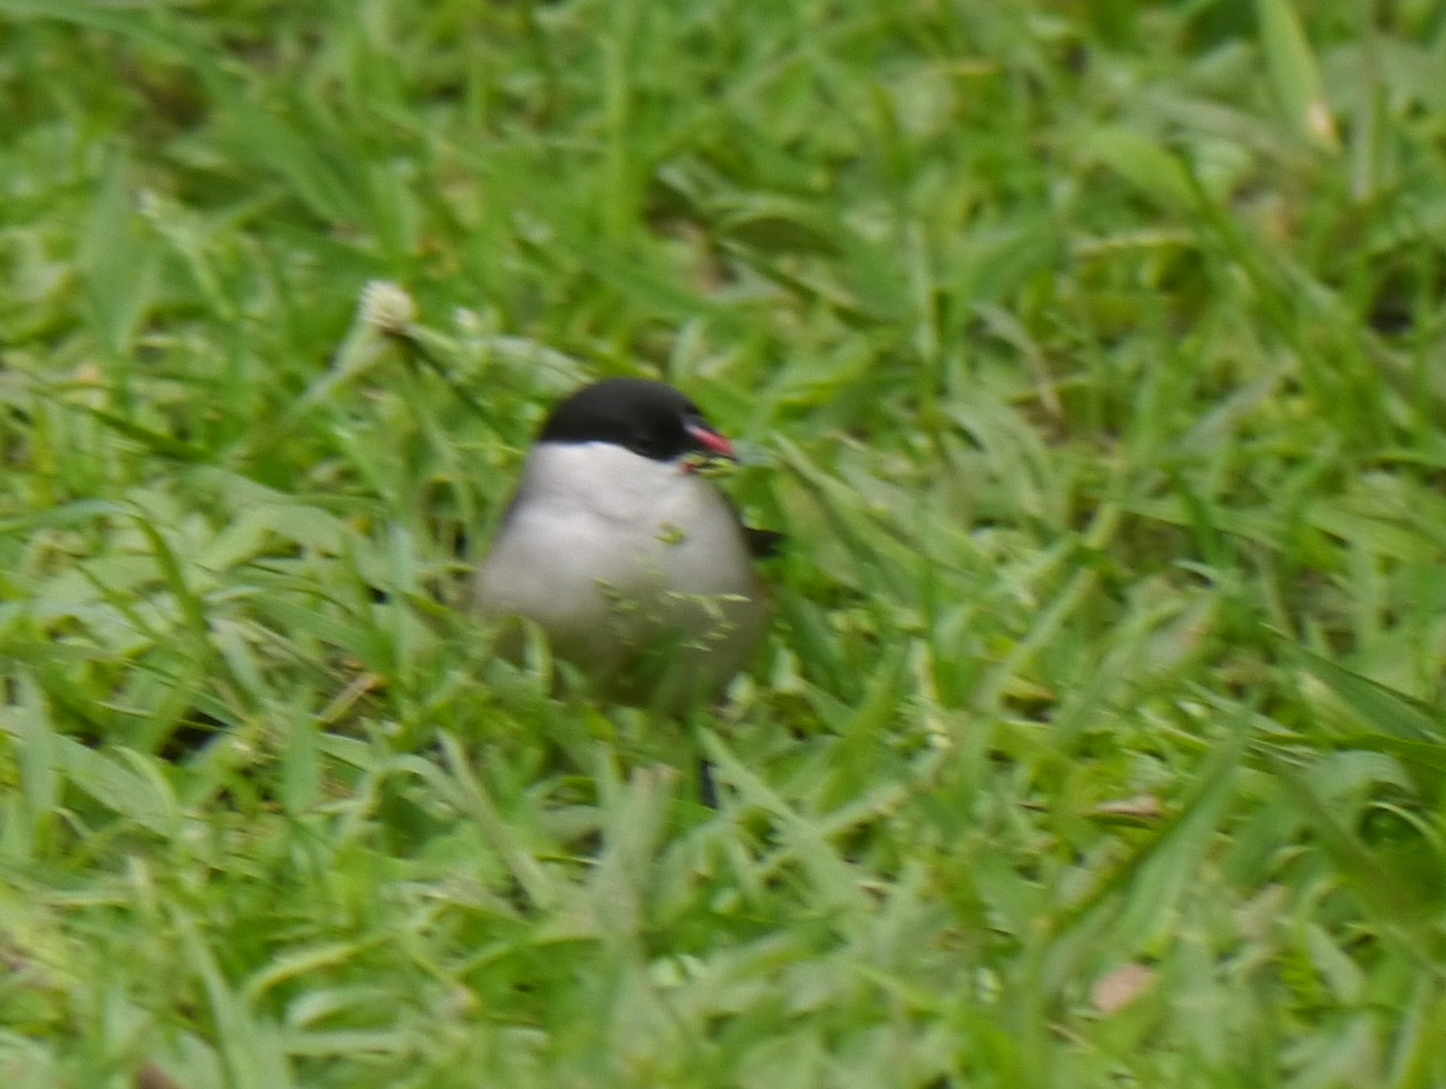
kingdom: Animalia
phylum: Chordata
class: Aves
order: Passeriformes
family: Estrildidae
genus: Estrilda
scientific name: Estrilda nonnula
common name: Black-crowned waxbill
